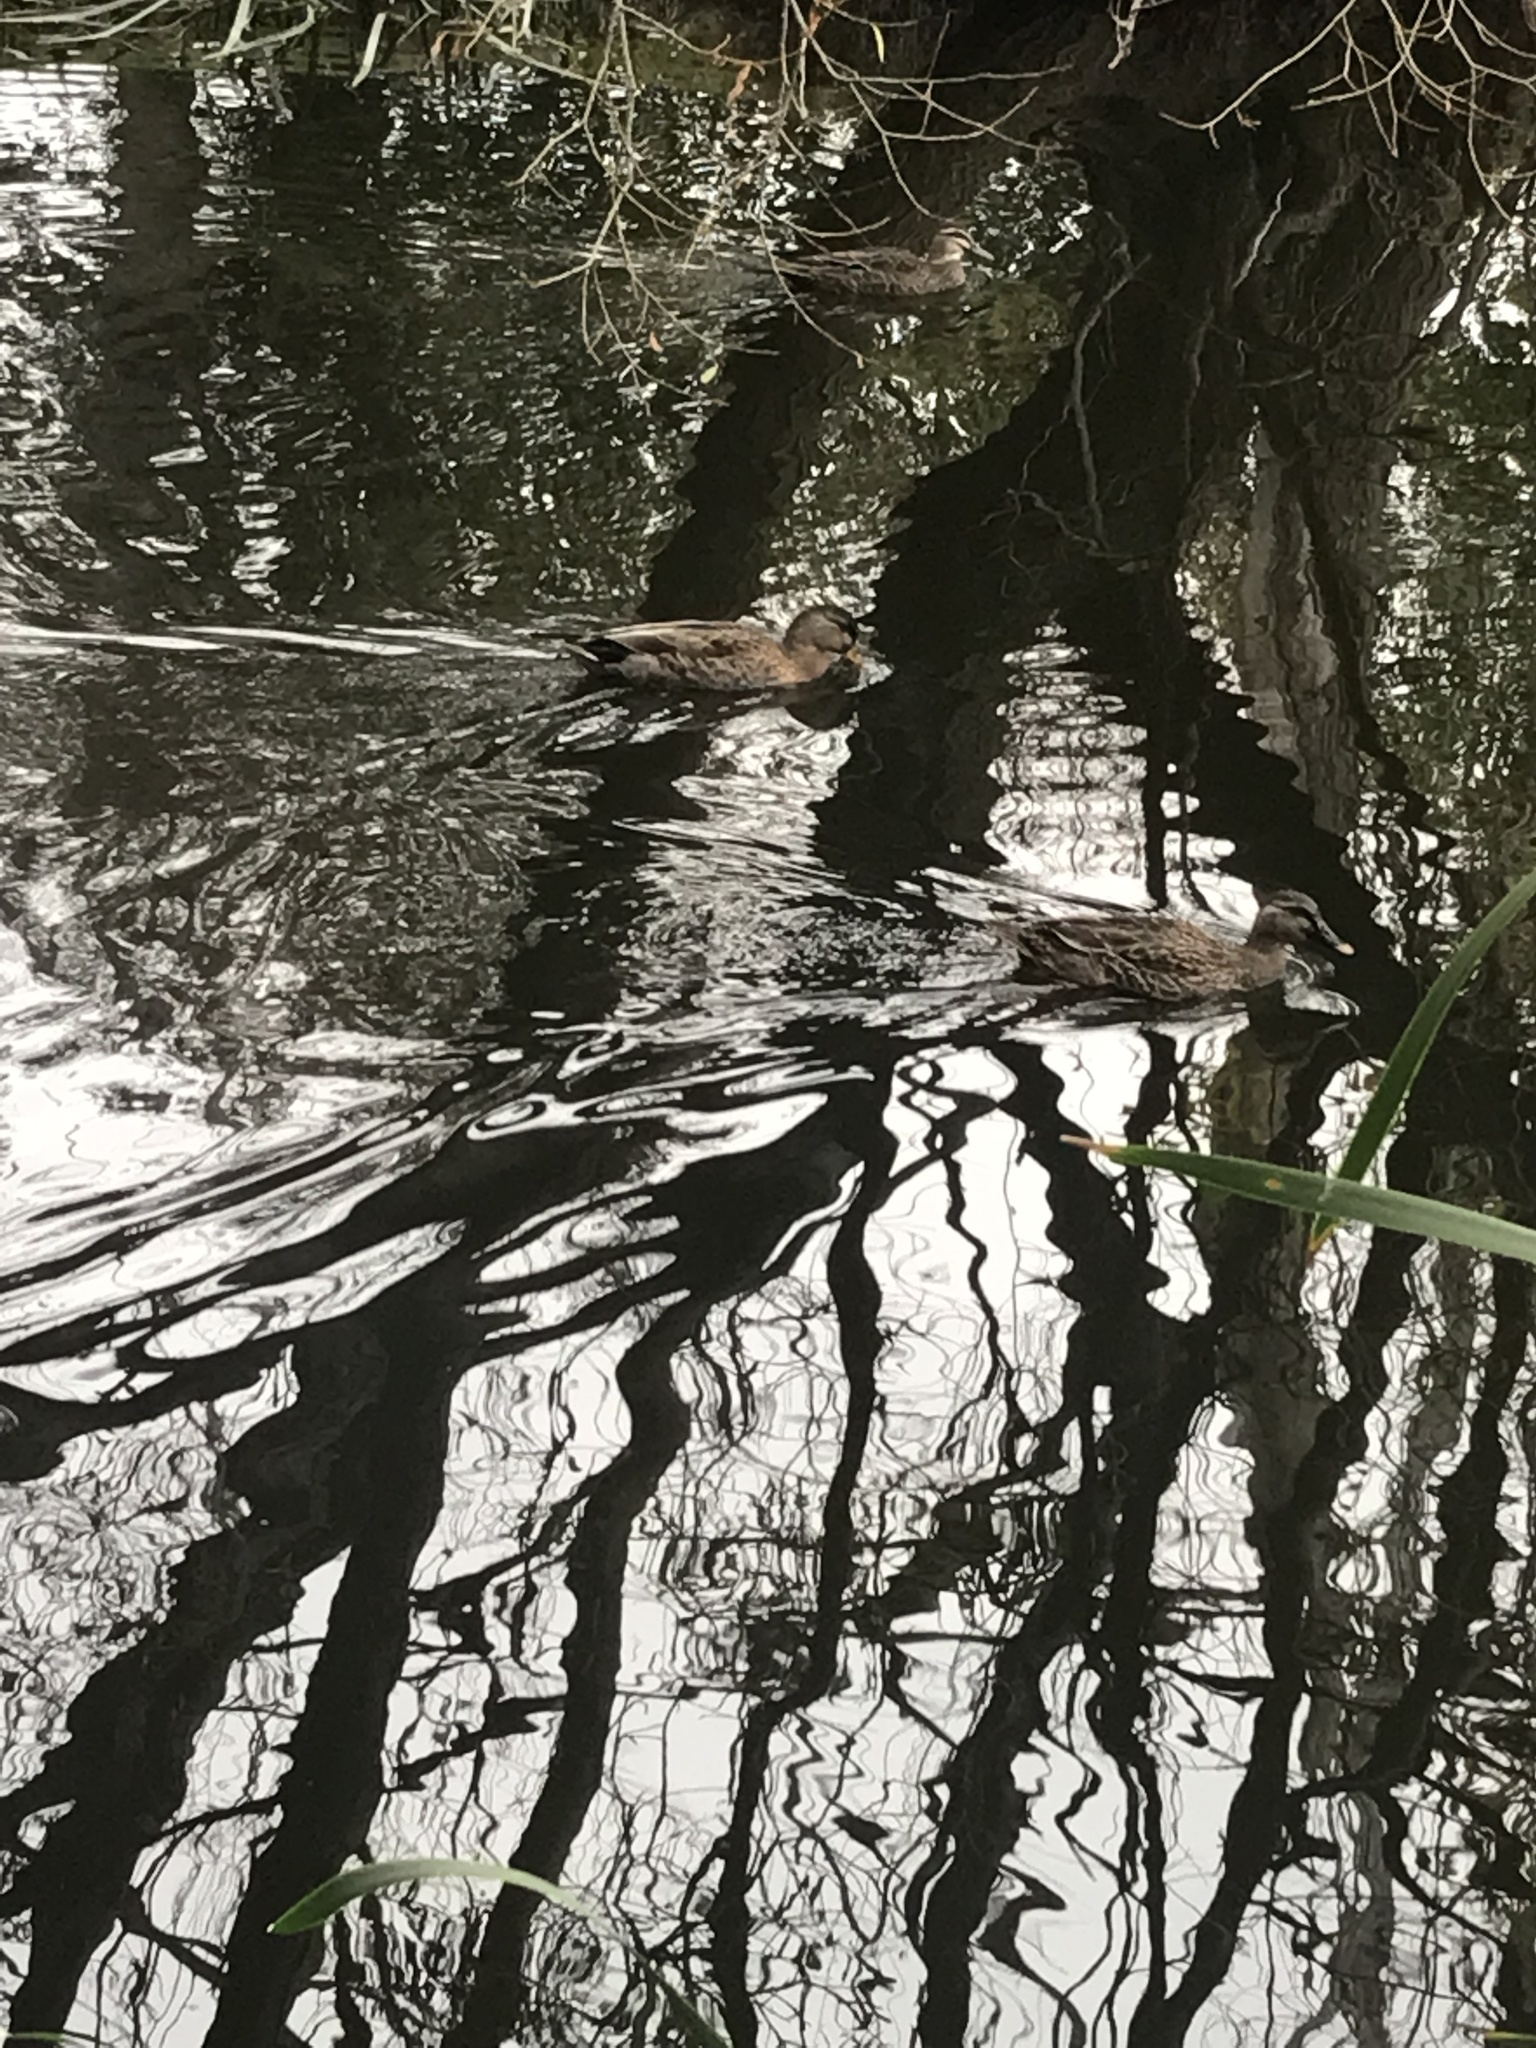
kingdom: Animalia
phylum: Chordata
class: Aves
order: Anseriformes
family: Anatidae
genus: Anas
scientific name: Anas
